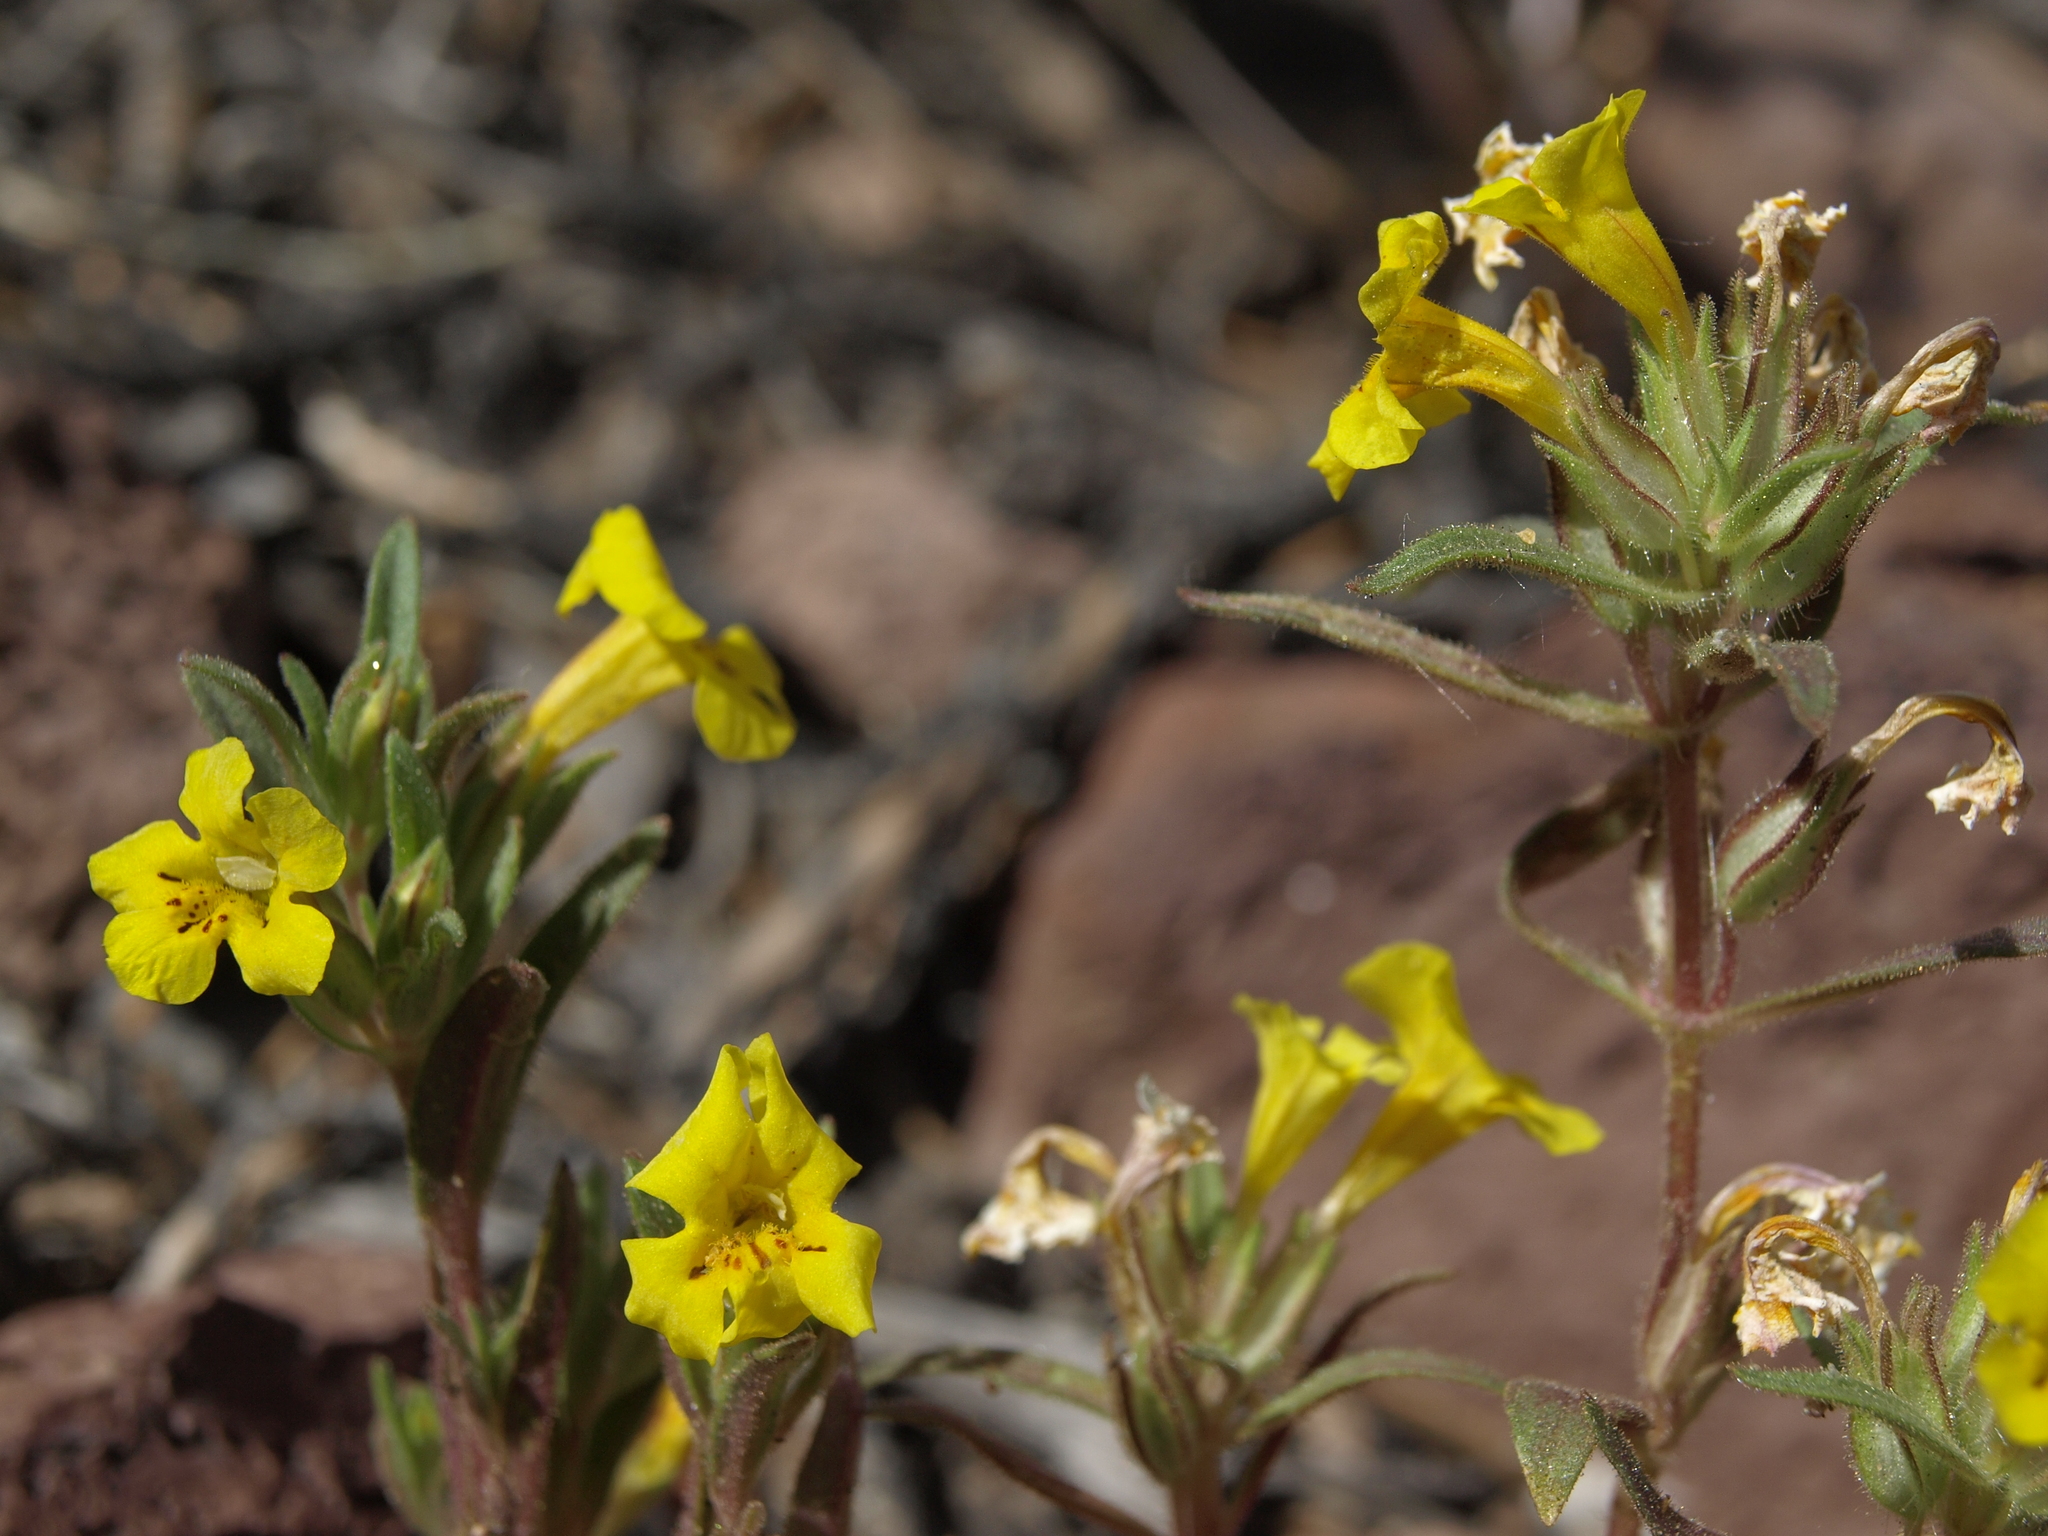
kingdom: Plantae
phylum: Tracheophyta
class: Magnoliopsida
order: Lamiales
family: Phrymaceae
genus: Diplacus
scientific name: Diplacus mephiticus
